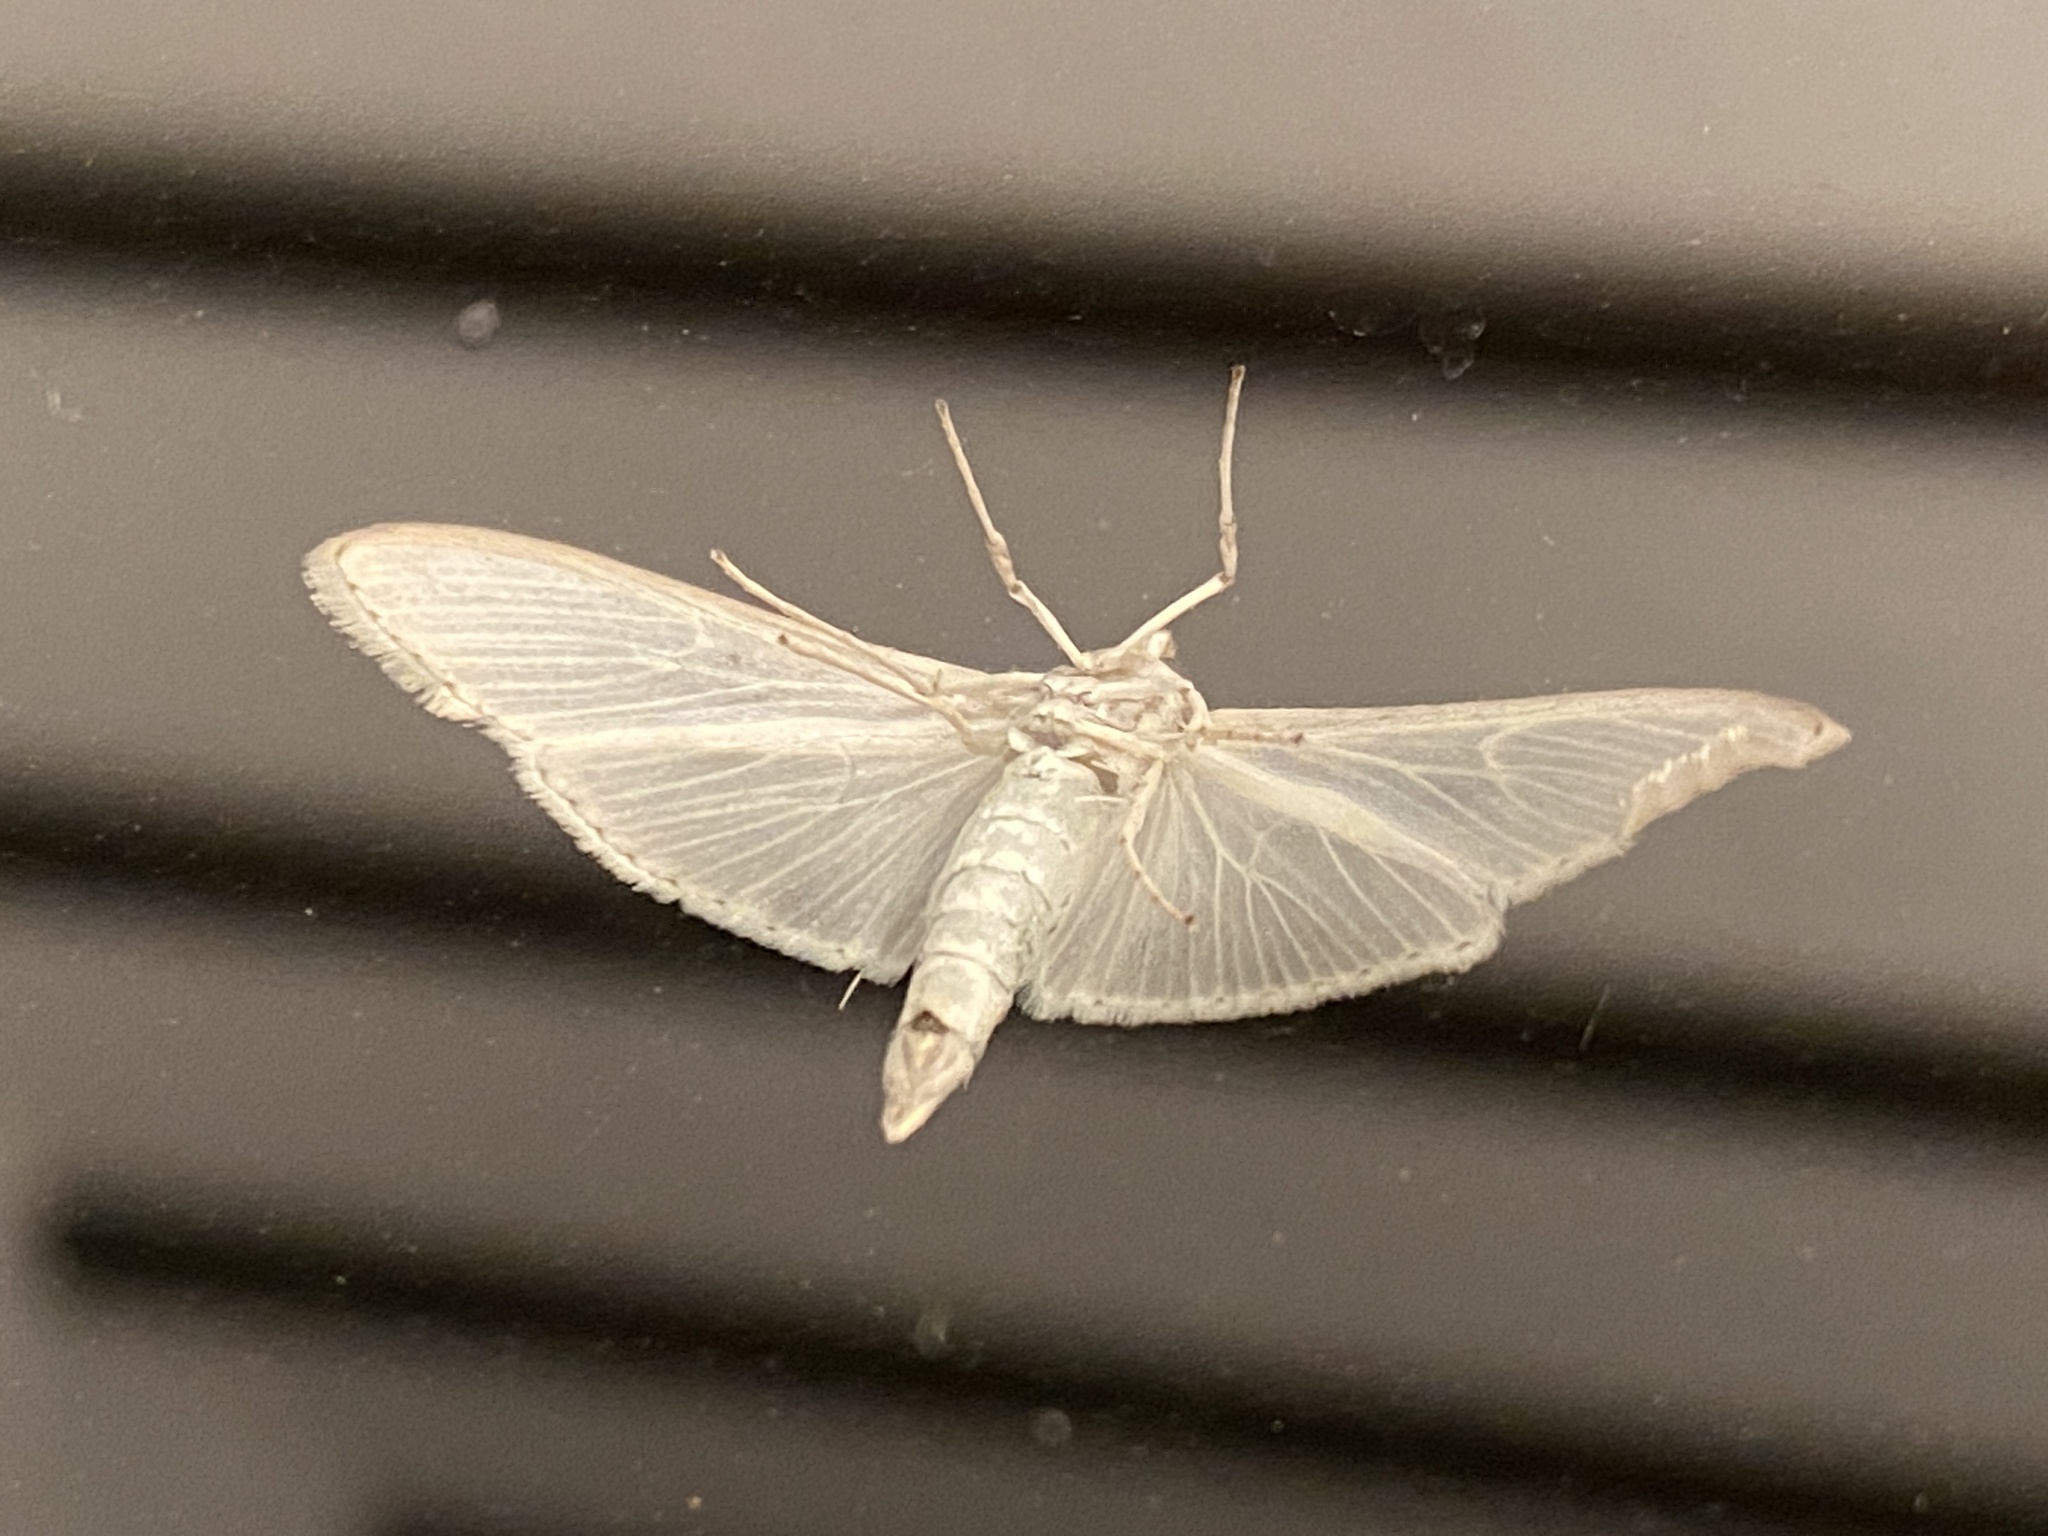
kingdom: Animalia
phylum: Arthropoda
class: Insecta
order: Lepidoptera
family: Crambidae
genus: Palpita
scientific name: Palpita vitrealis
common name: Olive-tree pearl
